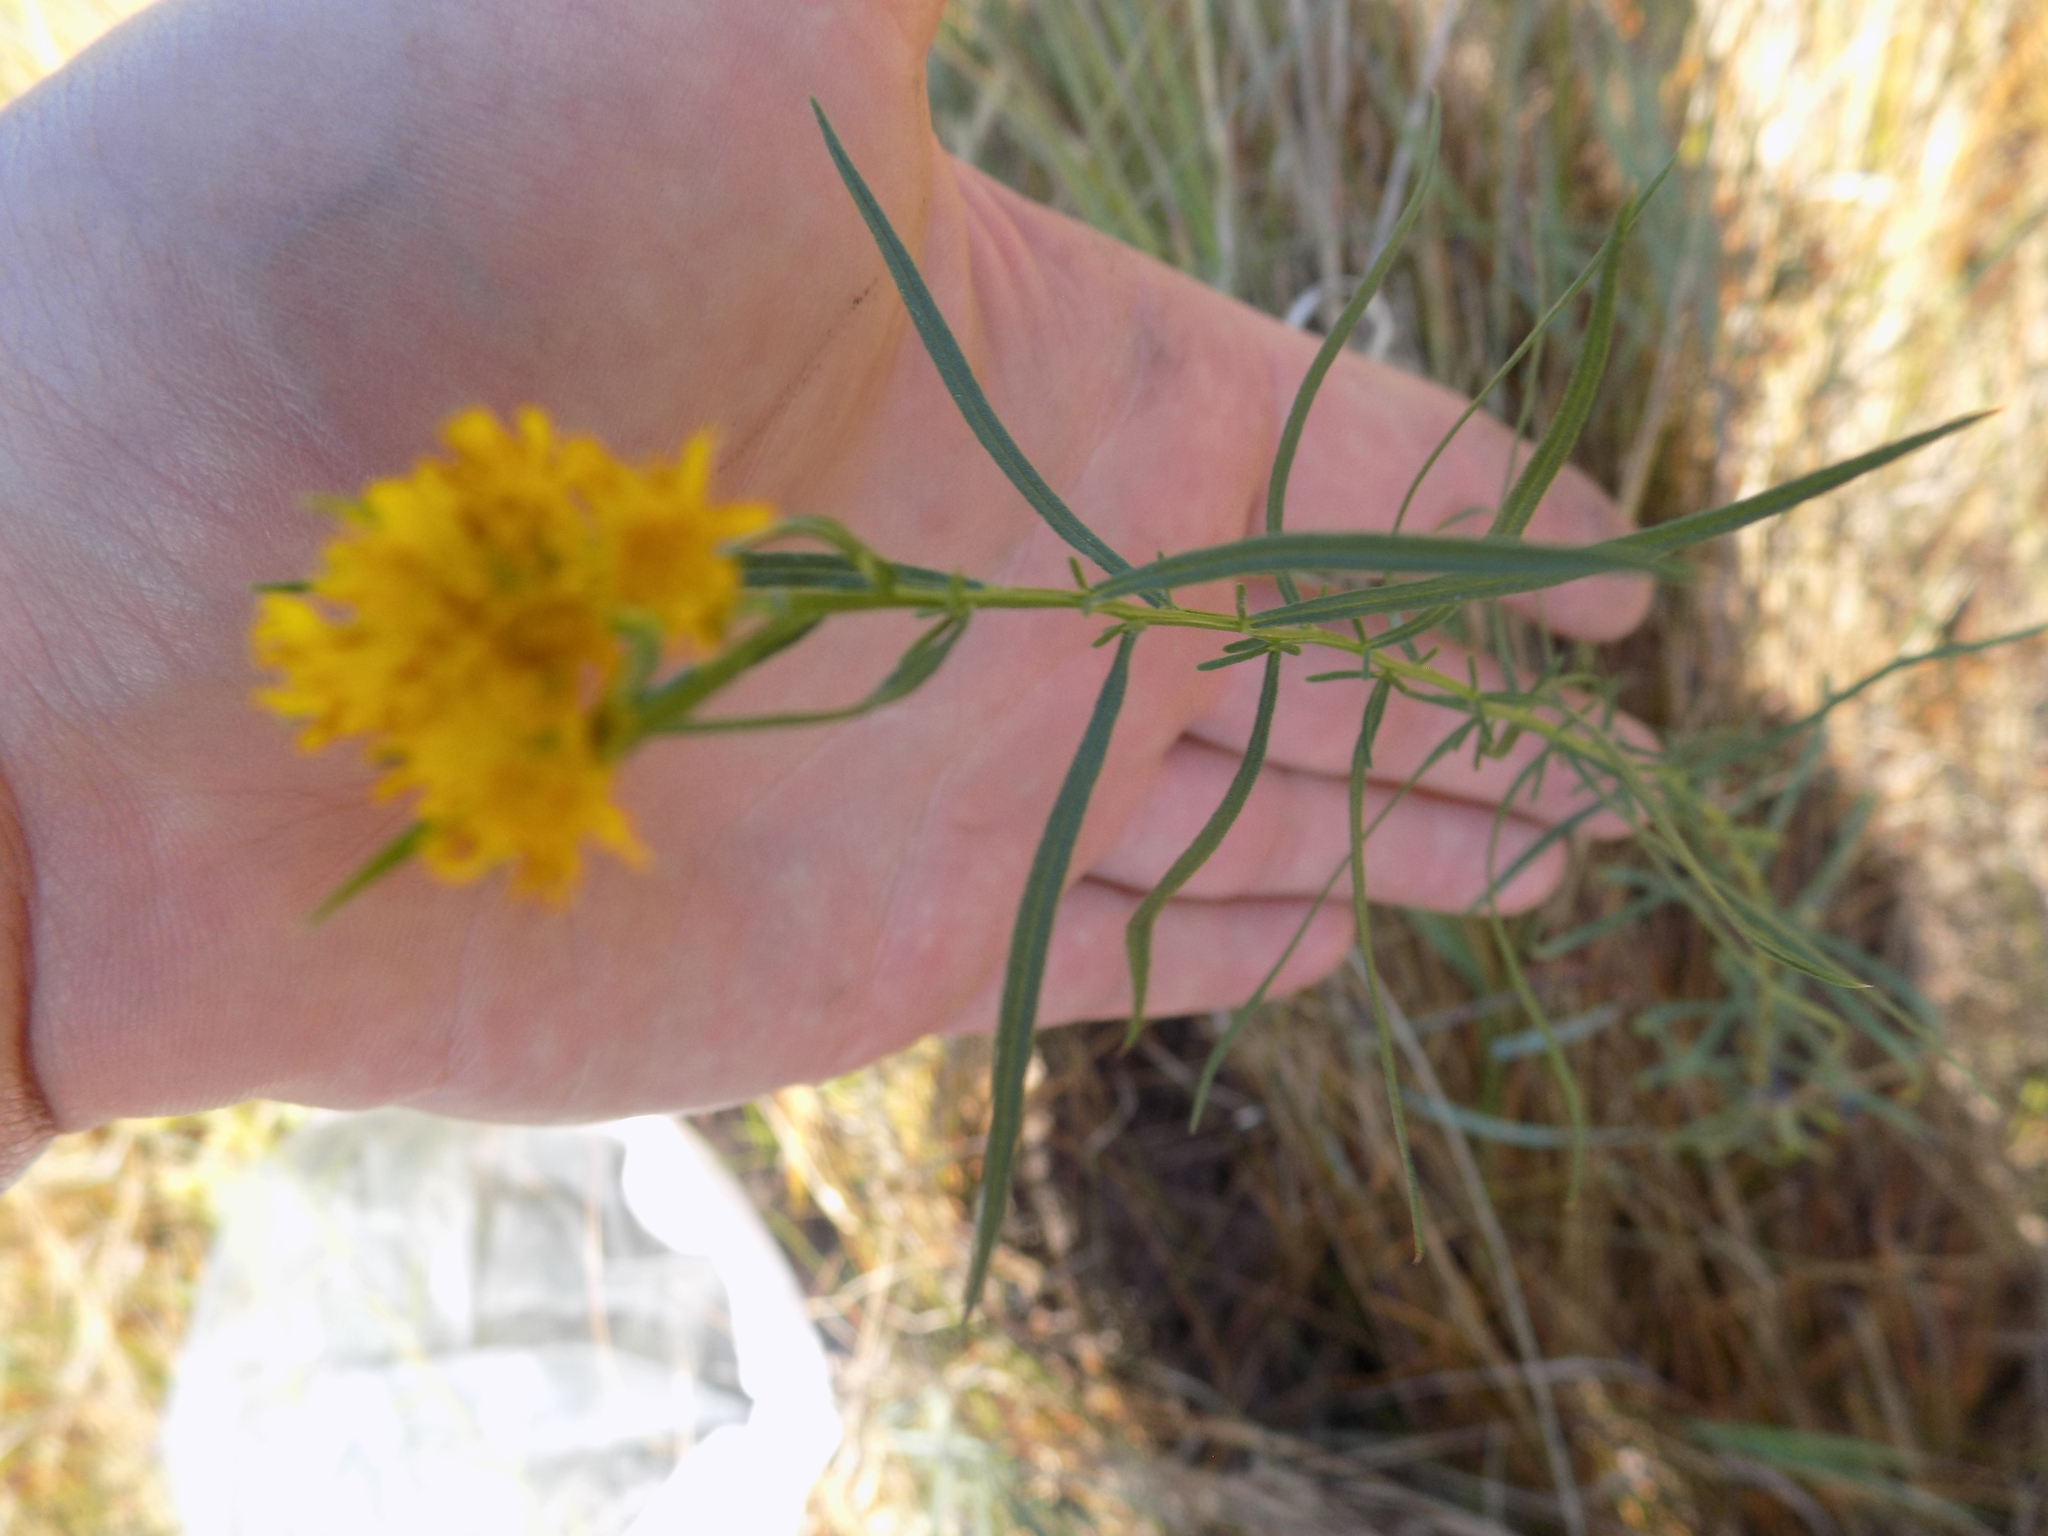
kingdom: Plantae
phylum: Tracheophyta
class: Magnoliopsida
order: Asterales
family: Asteraceae
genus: Euthamia
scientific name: Euthamia caroliniana
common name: Coastal plain goldentop
